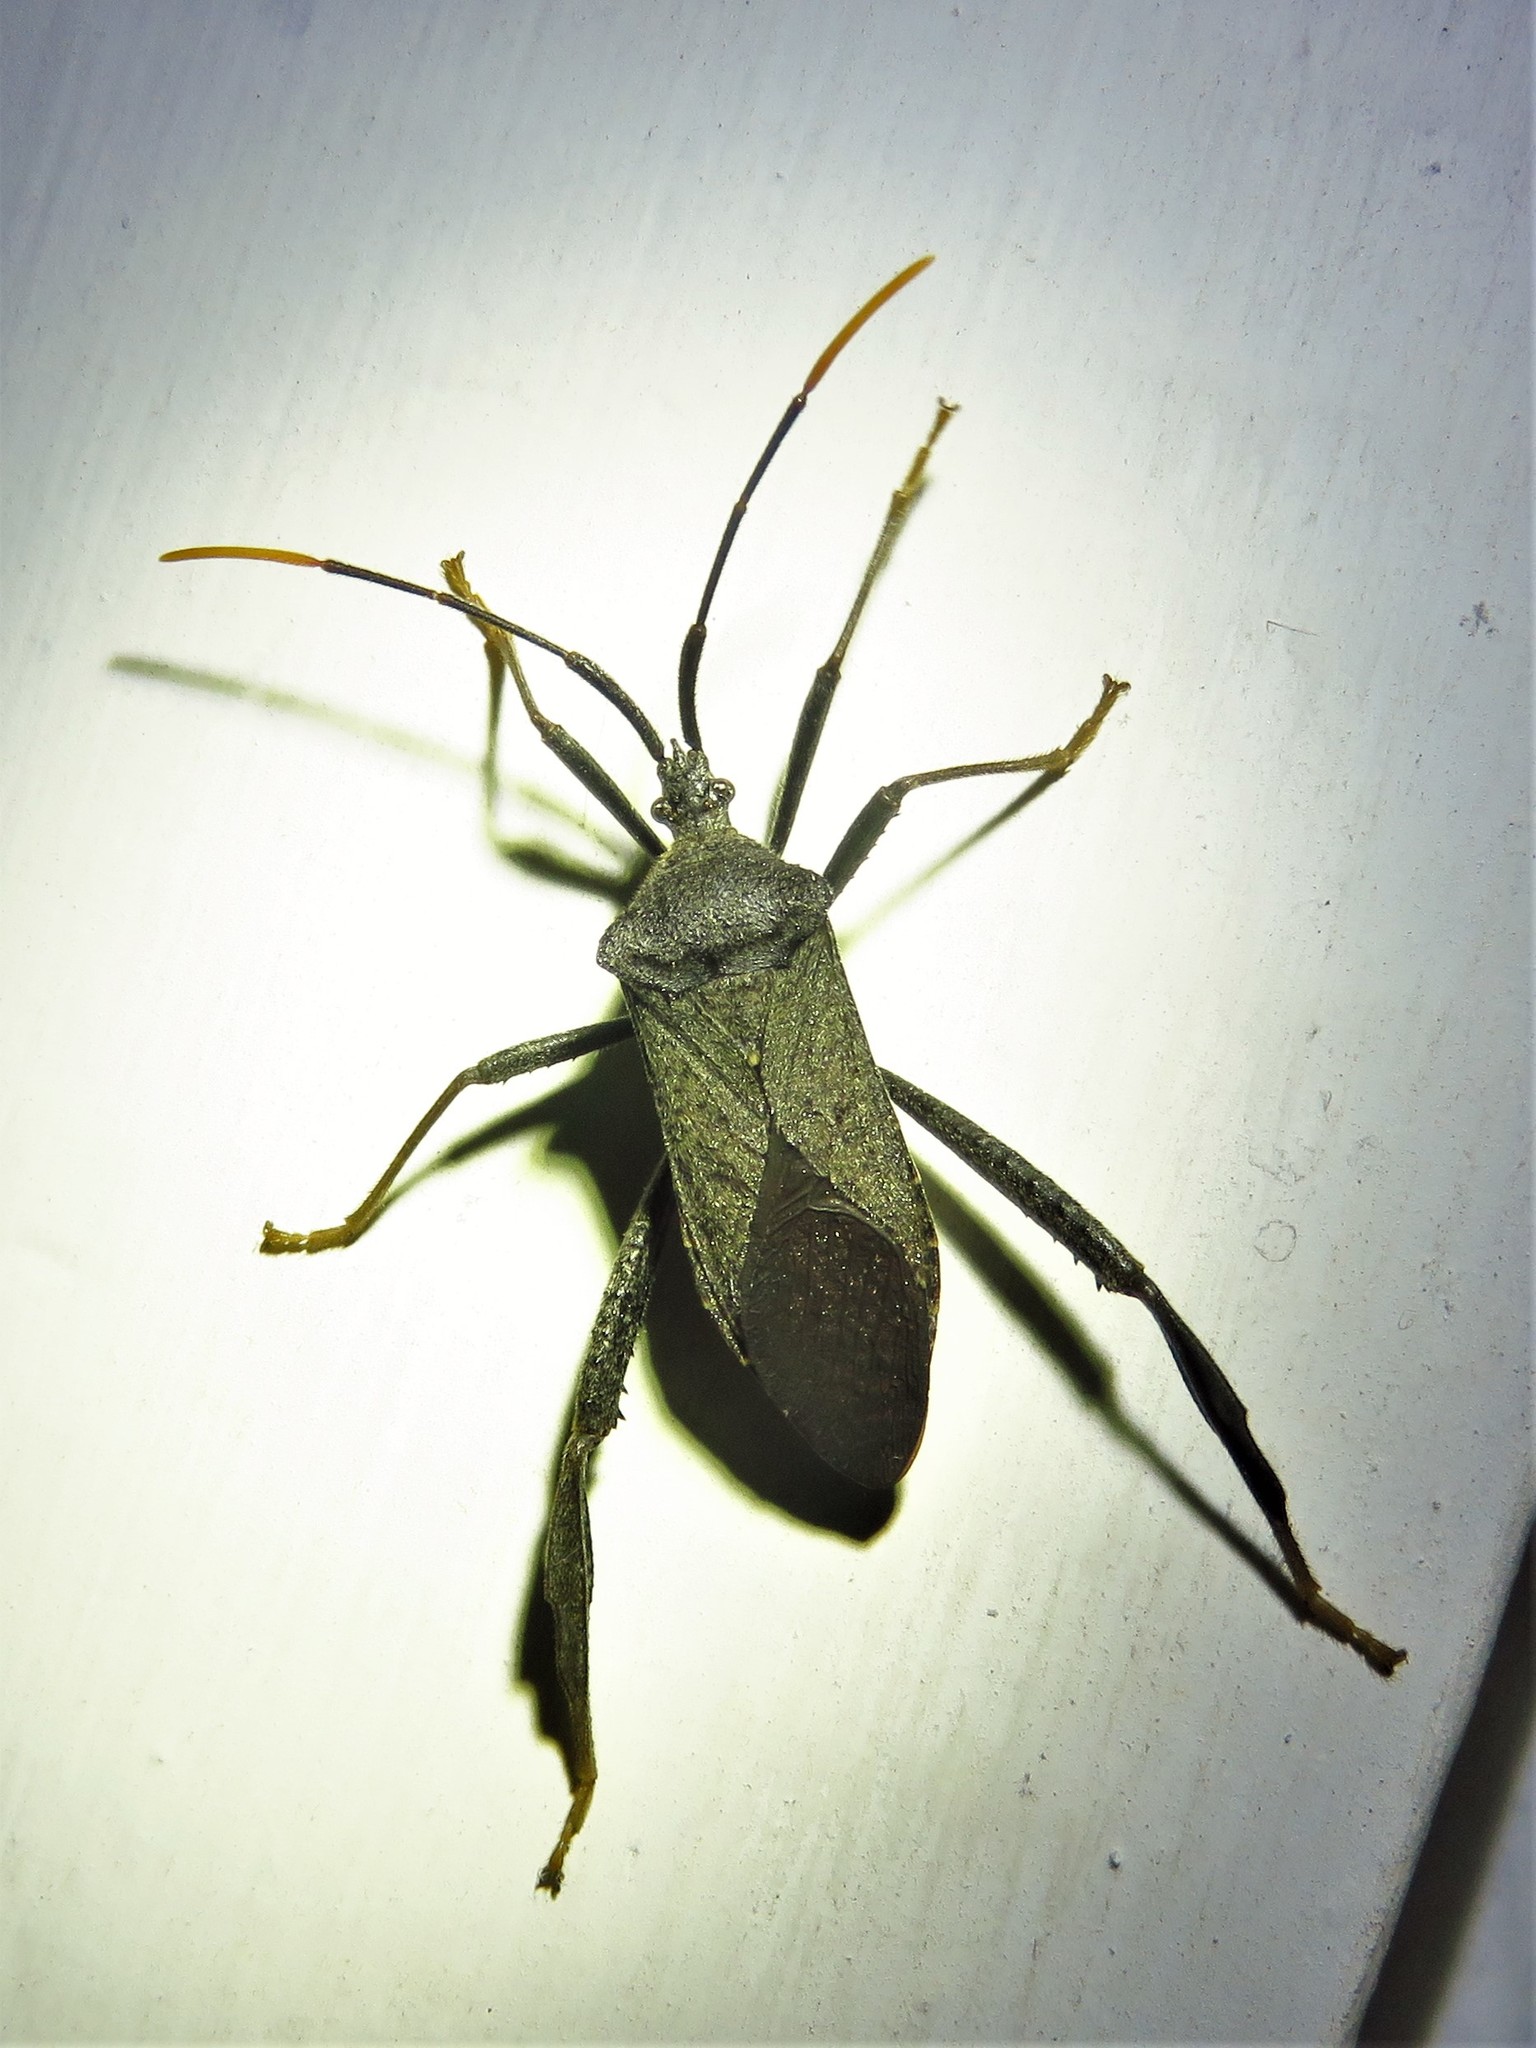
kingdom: Animalia
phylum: Arthropoda
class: Insecta
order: Hemiptera
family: Coreidae
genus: Acanthocephala
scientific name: Acanthocephala terminalis
